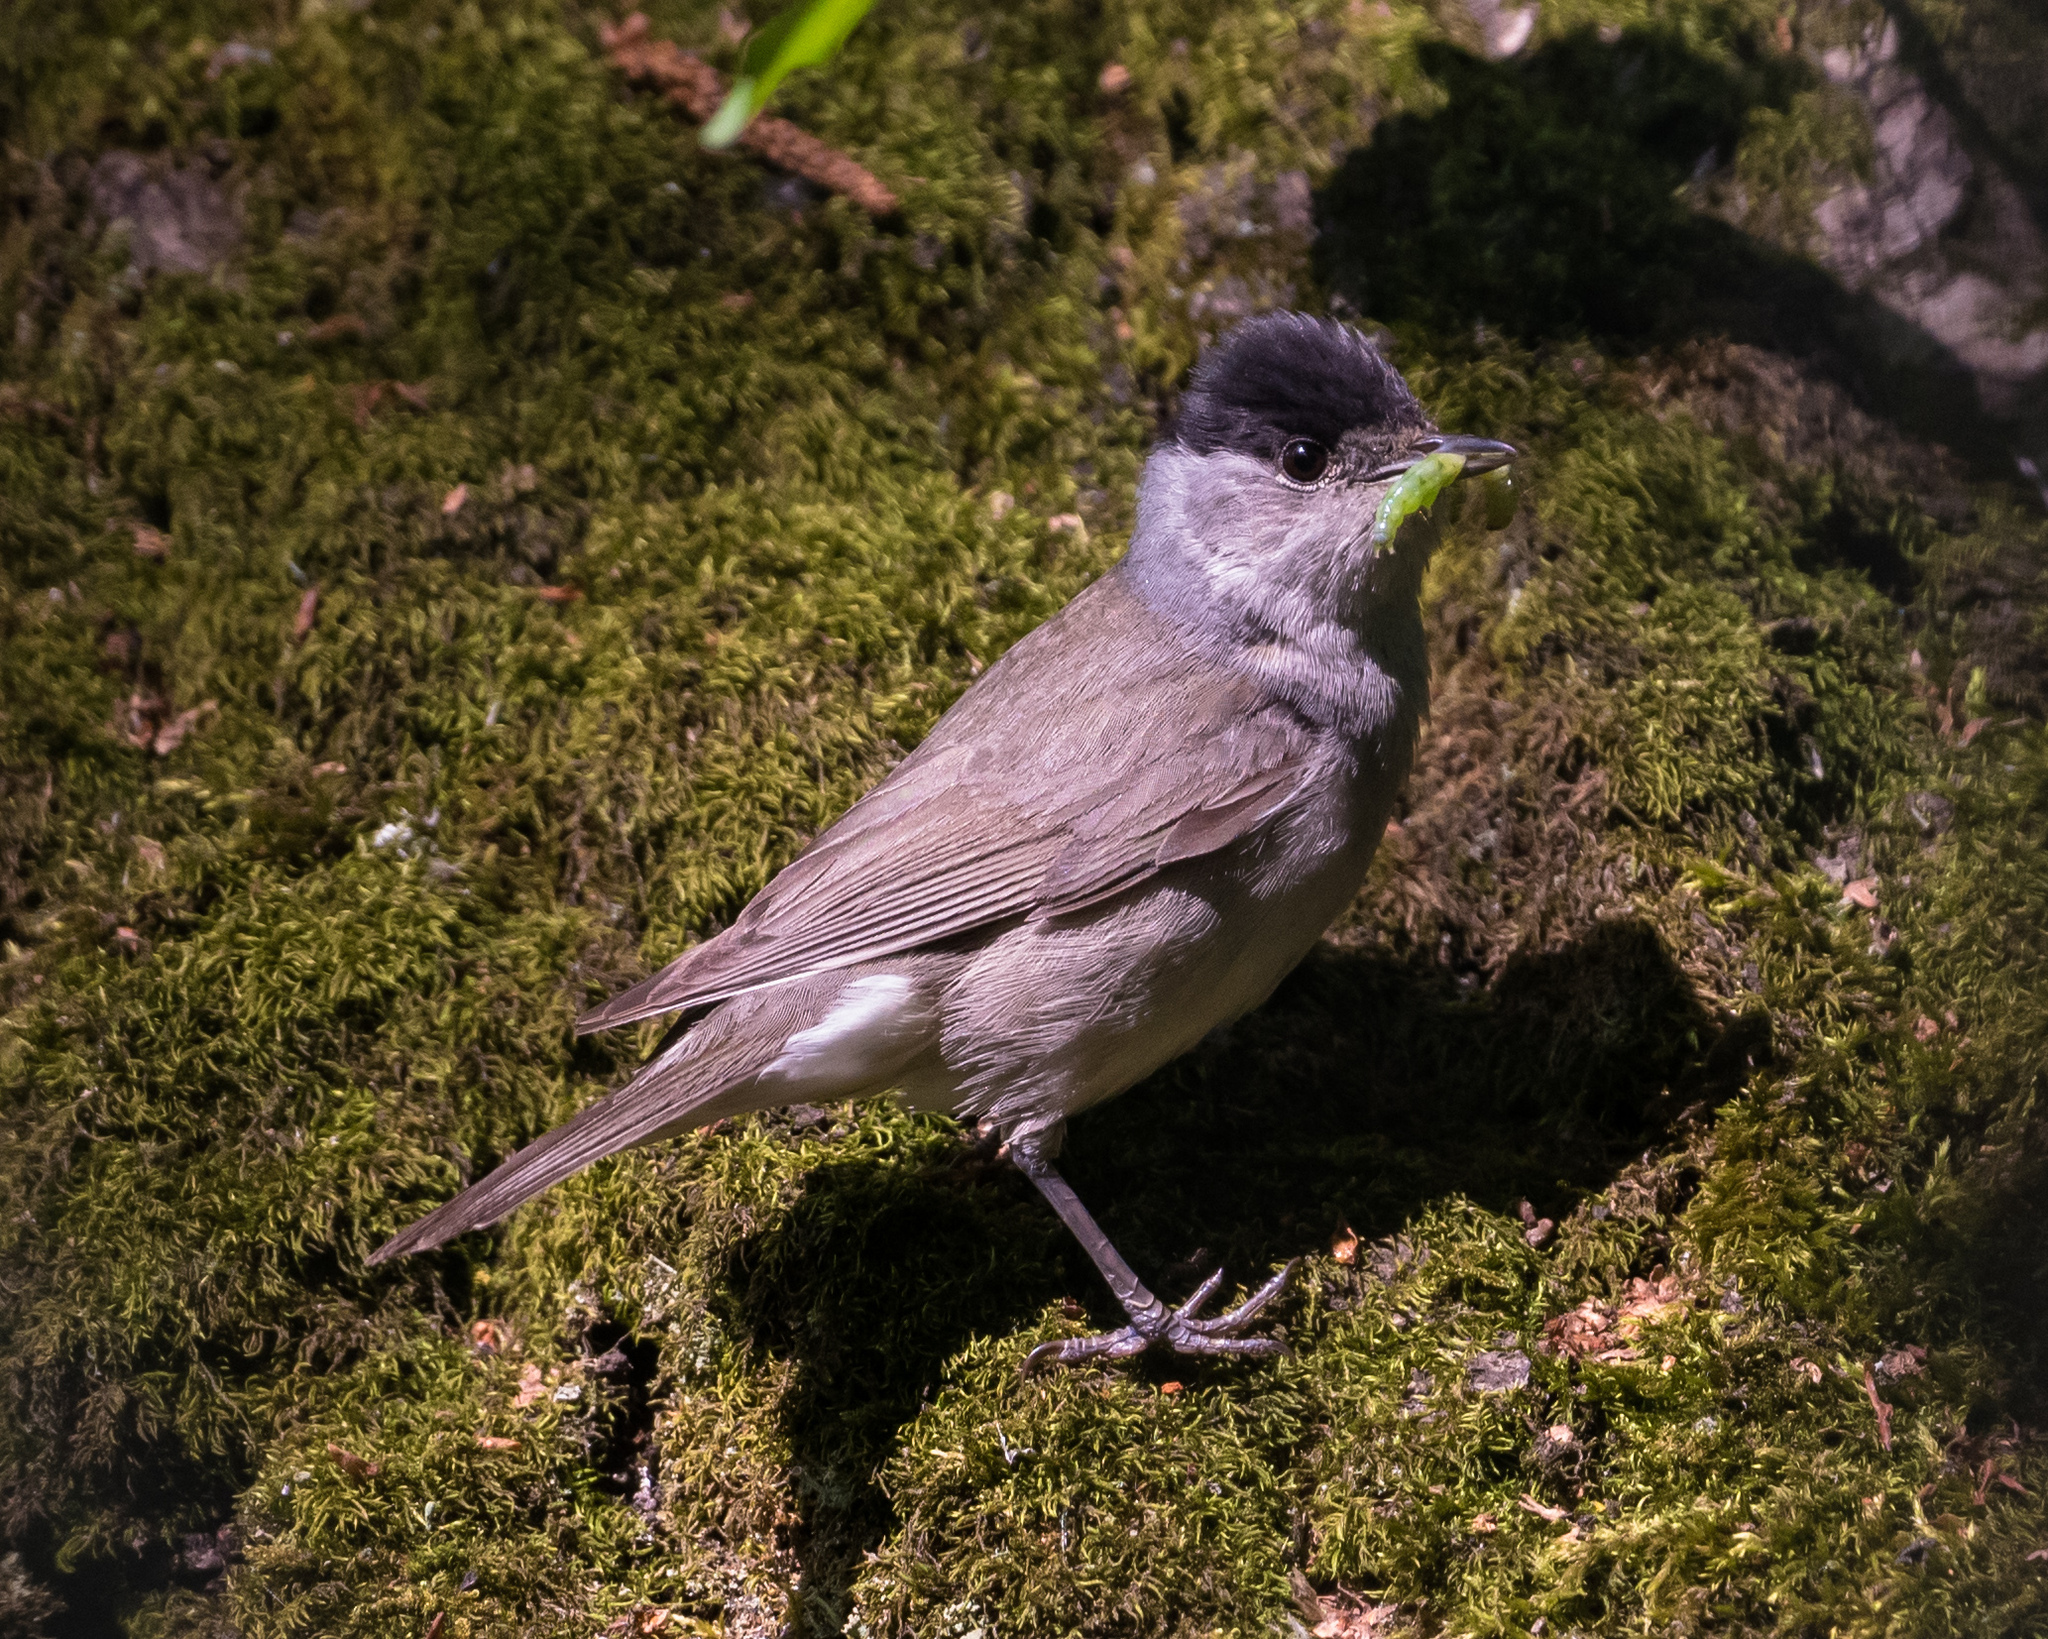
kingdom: Animalia
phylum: Chordata
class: Aves
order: Passeriformes
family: Sylviidae
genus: Sylvia
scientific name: Sylvia atricapilla
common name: Eurasian blackcap
